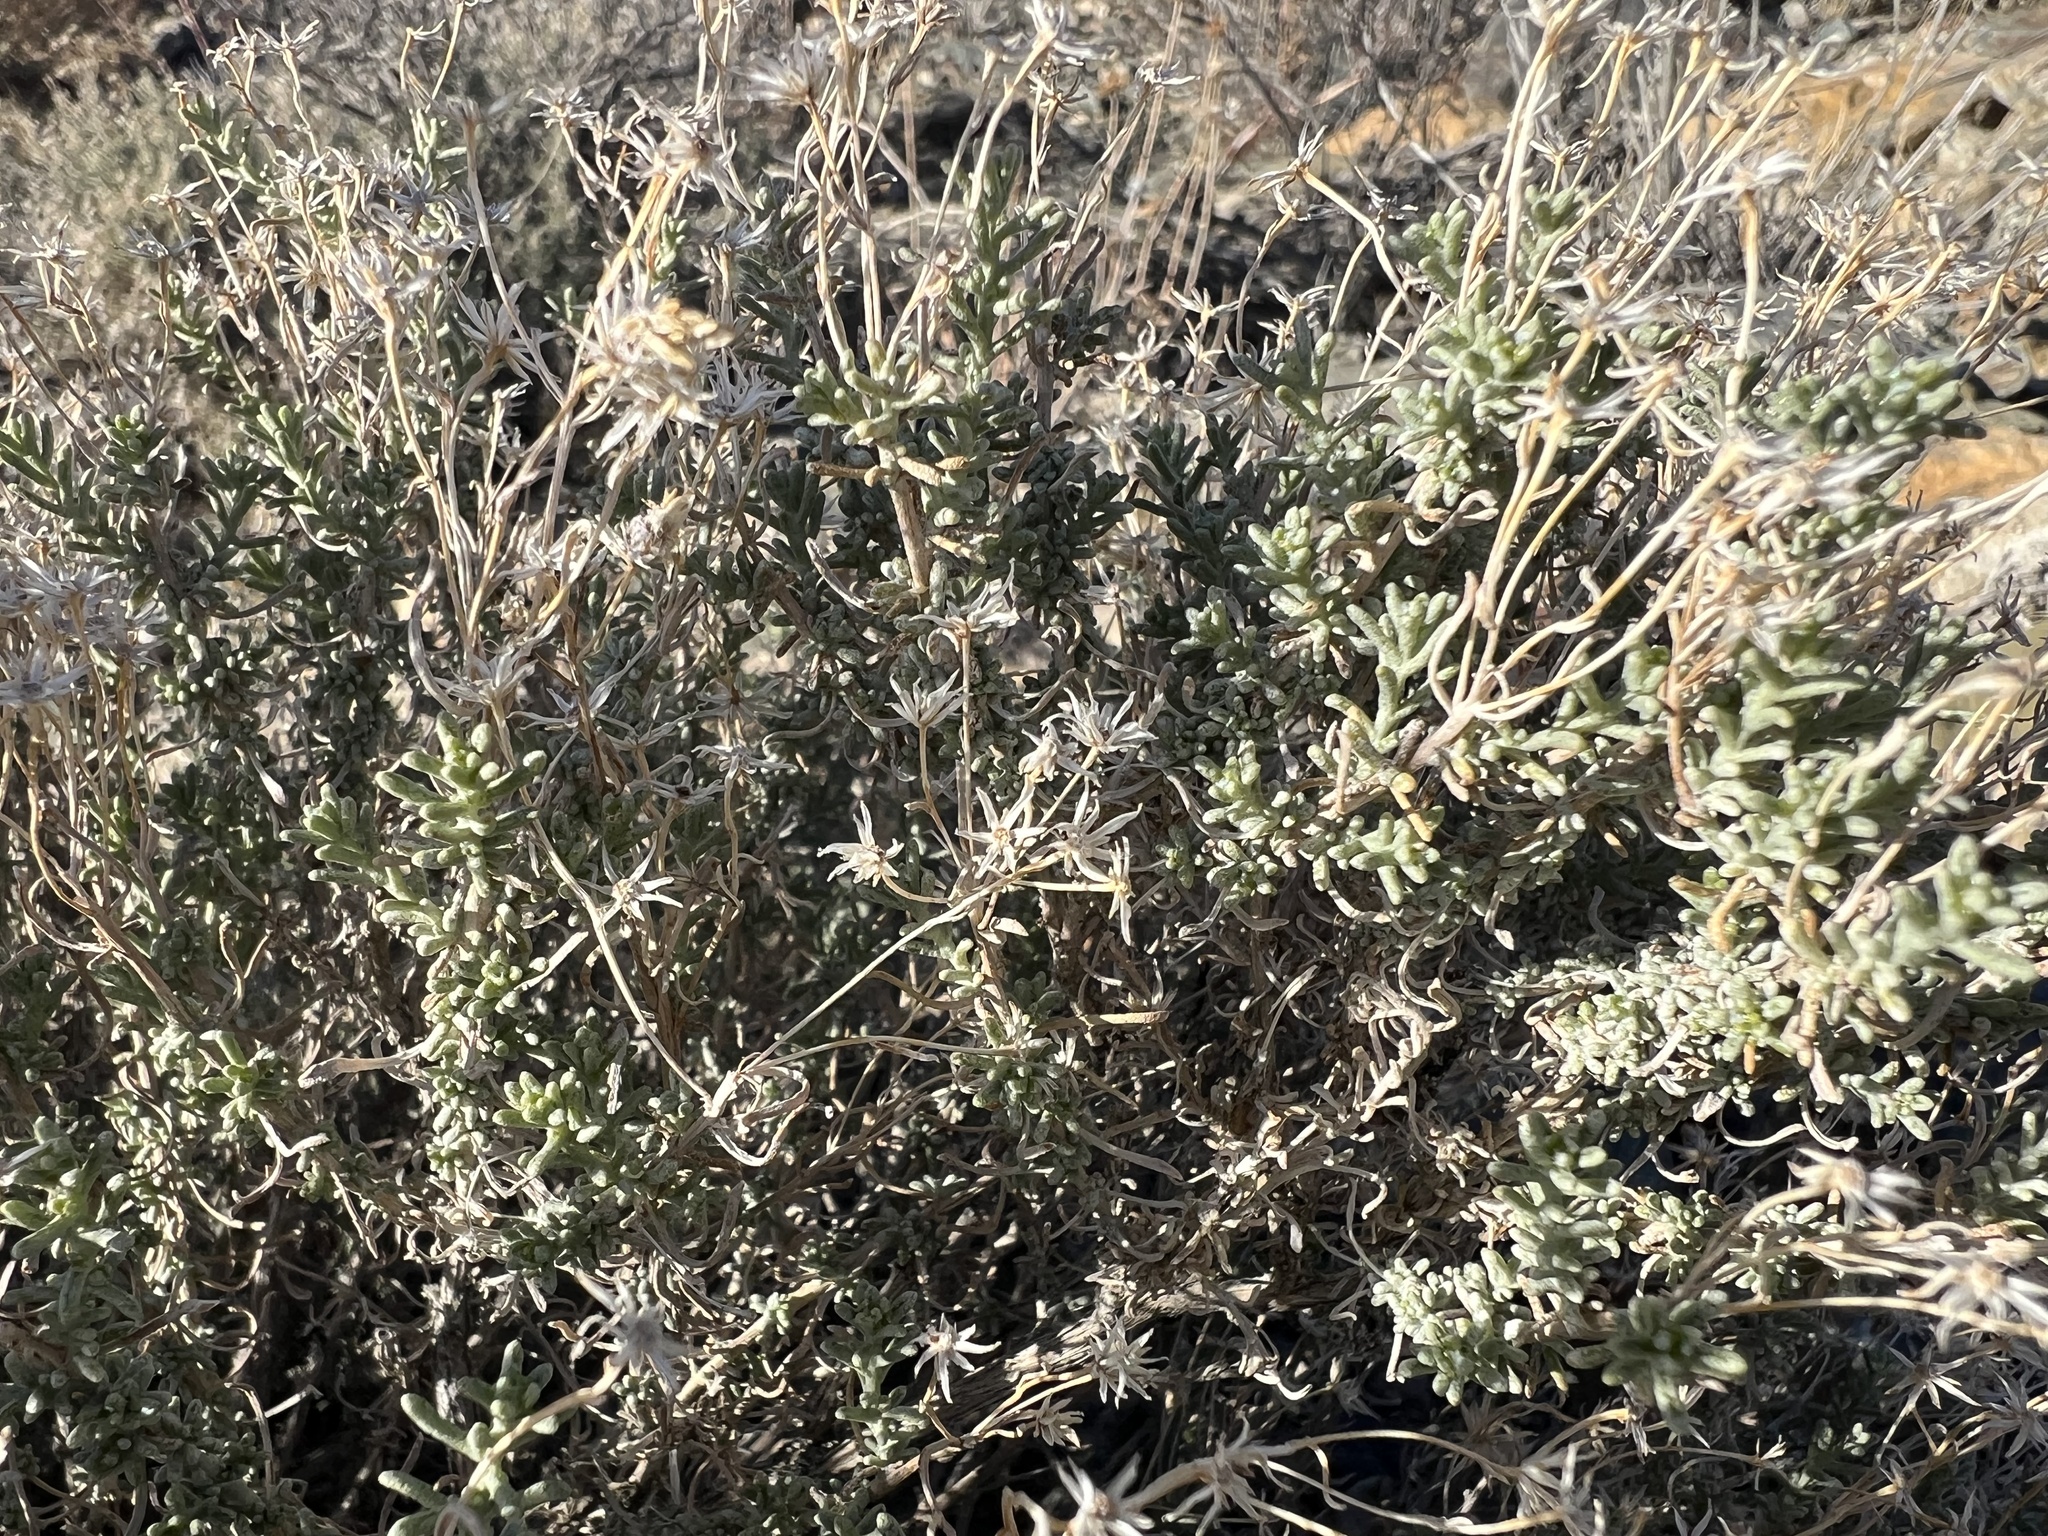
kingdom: Plantae
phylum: Tracheophyta
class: Magnoliopsida
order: Asterales
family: Asteraceae
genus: Ericameria
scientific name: Ericameria cooperi
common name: Cooper's goldenbush
